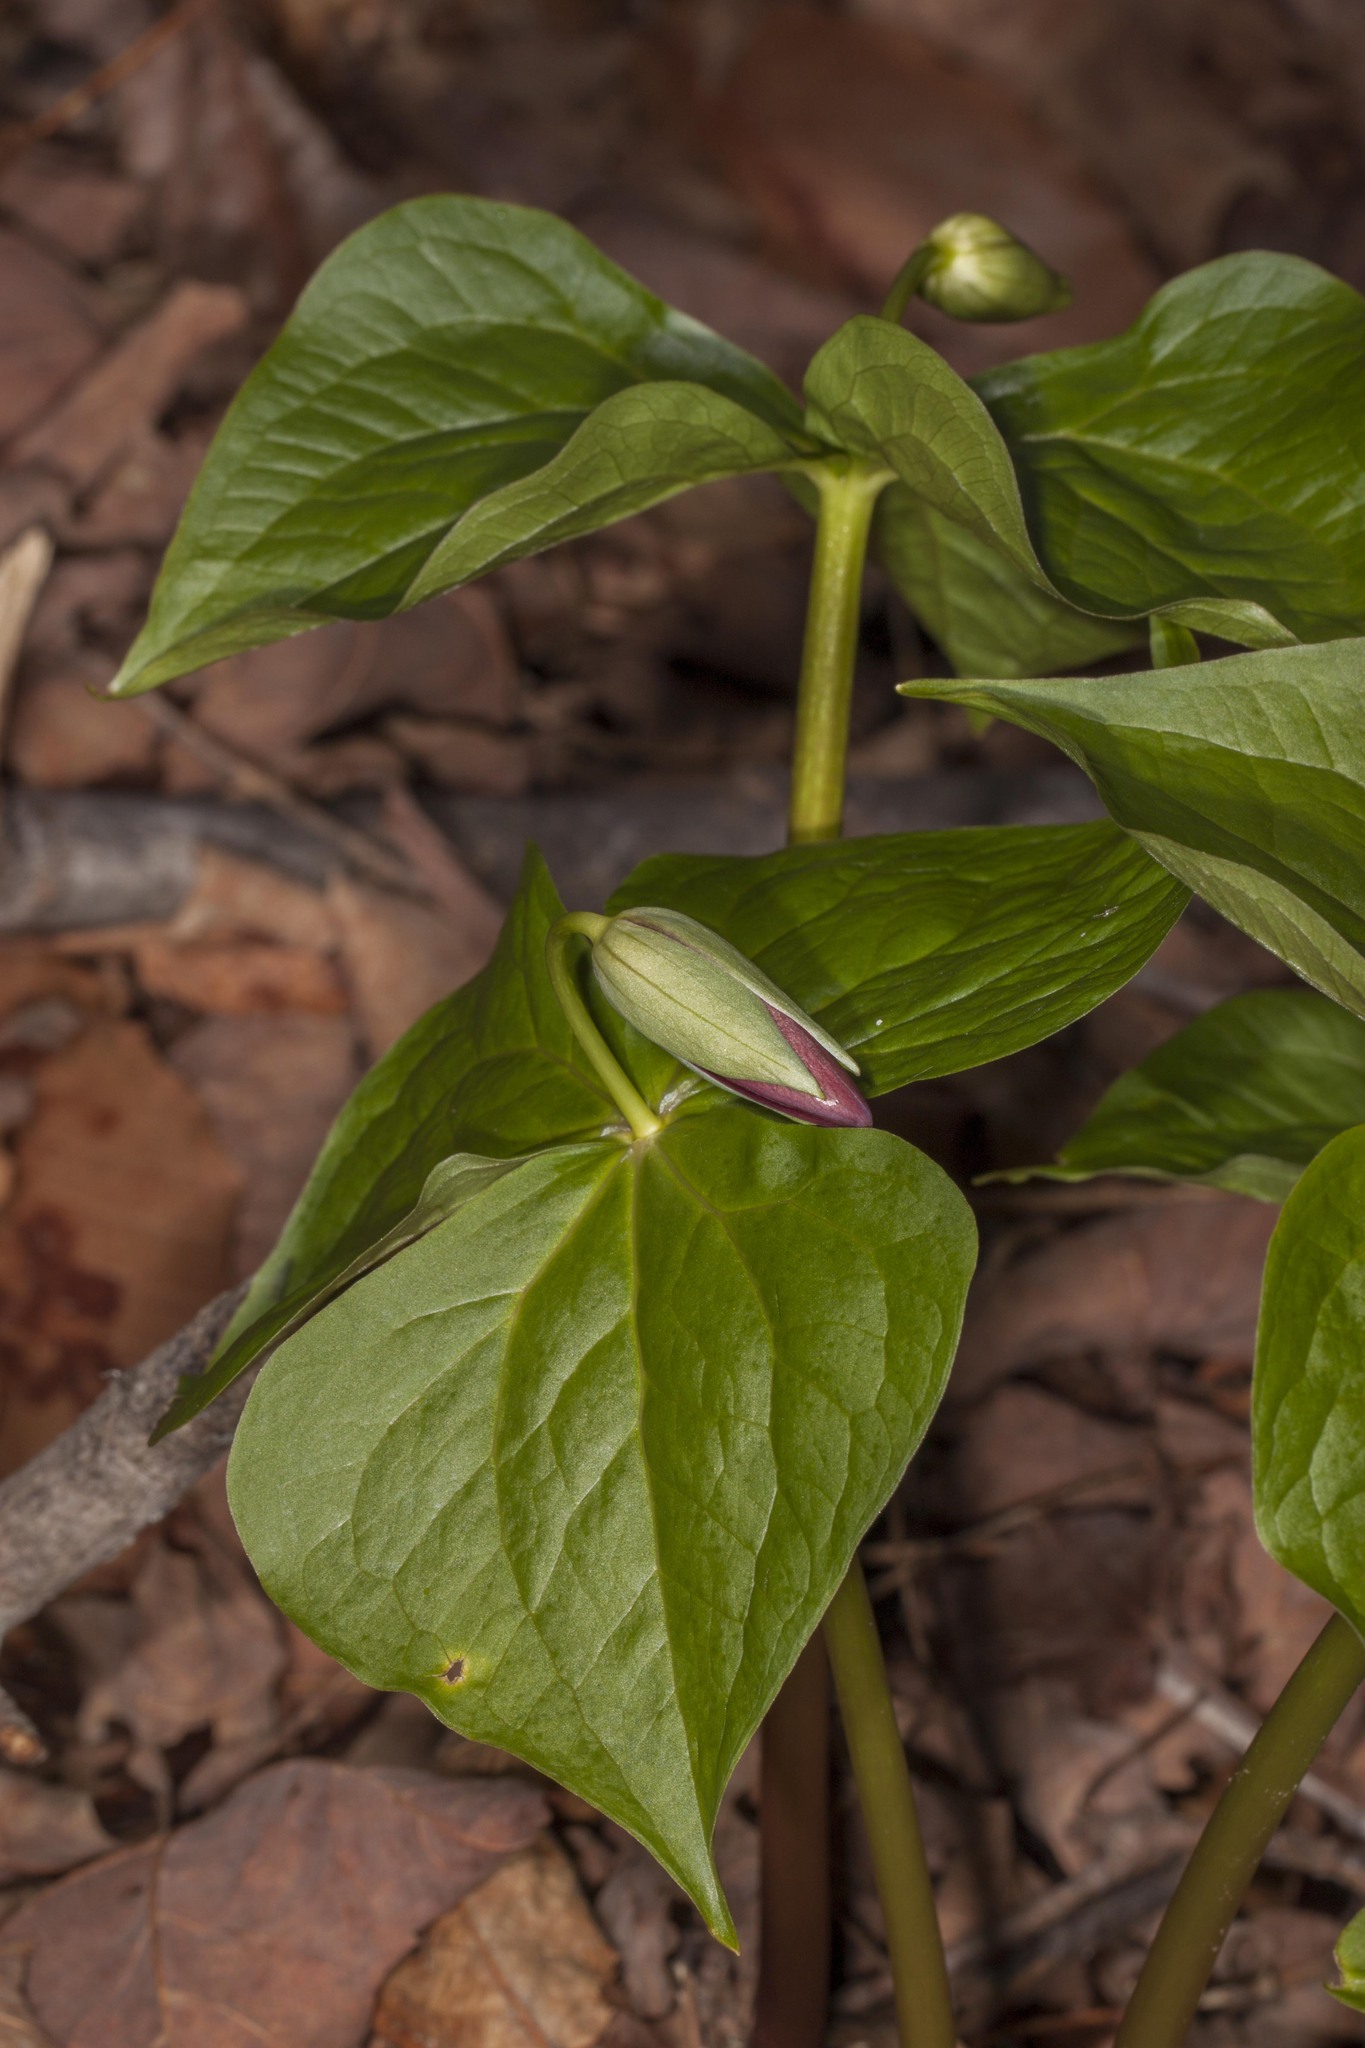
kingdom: Plantae
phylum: Tracheophyta
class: Liliopsida
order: Liliales
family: Melanthiaceae
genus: Trillium
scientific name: Trillium erectum
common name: Purple trillium
